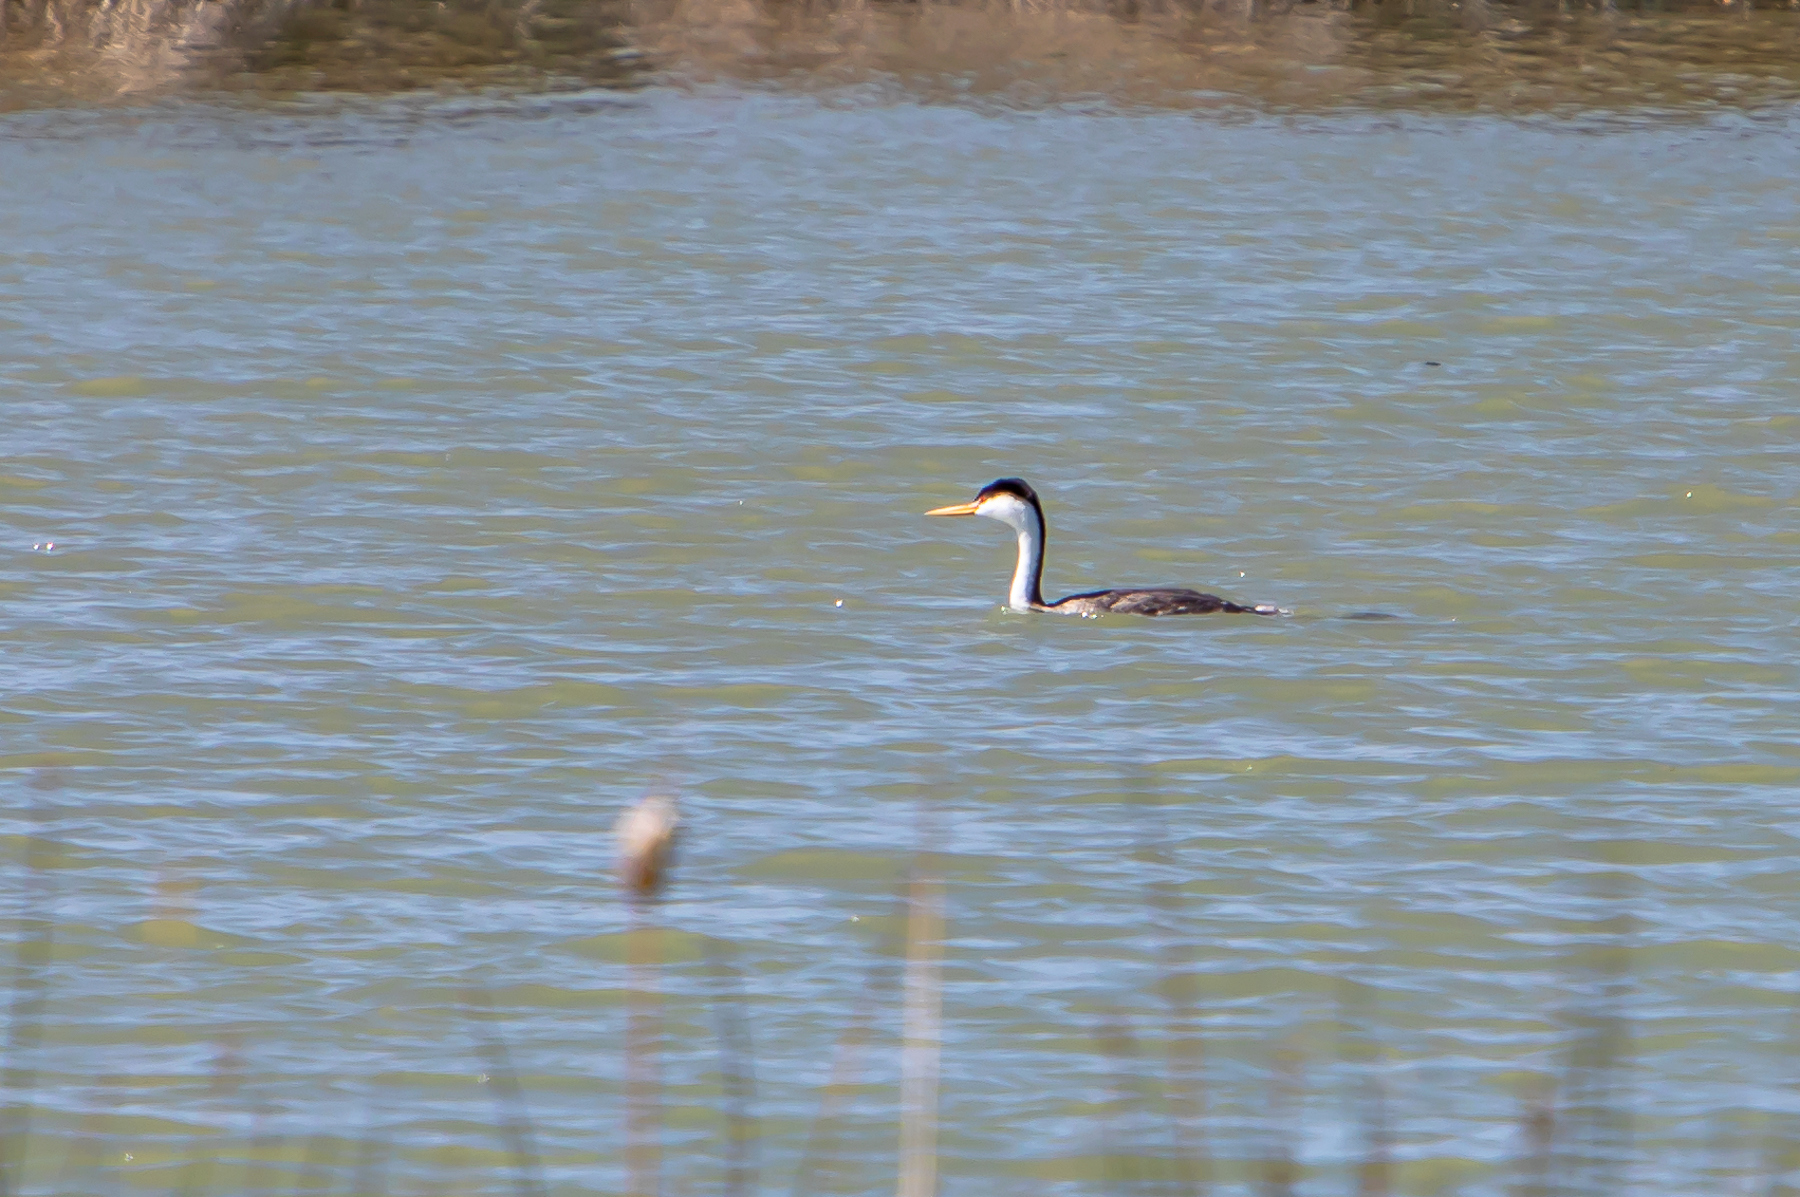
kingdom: Animalia
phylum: Chordata
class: Aves
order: Podicipediformes
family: Podicipedidae
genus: Aechmophorus
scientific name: Aechmophorus clarkii
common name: Clark's grebe
